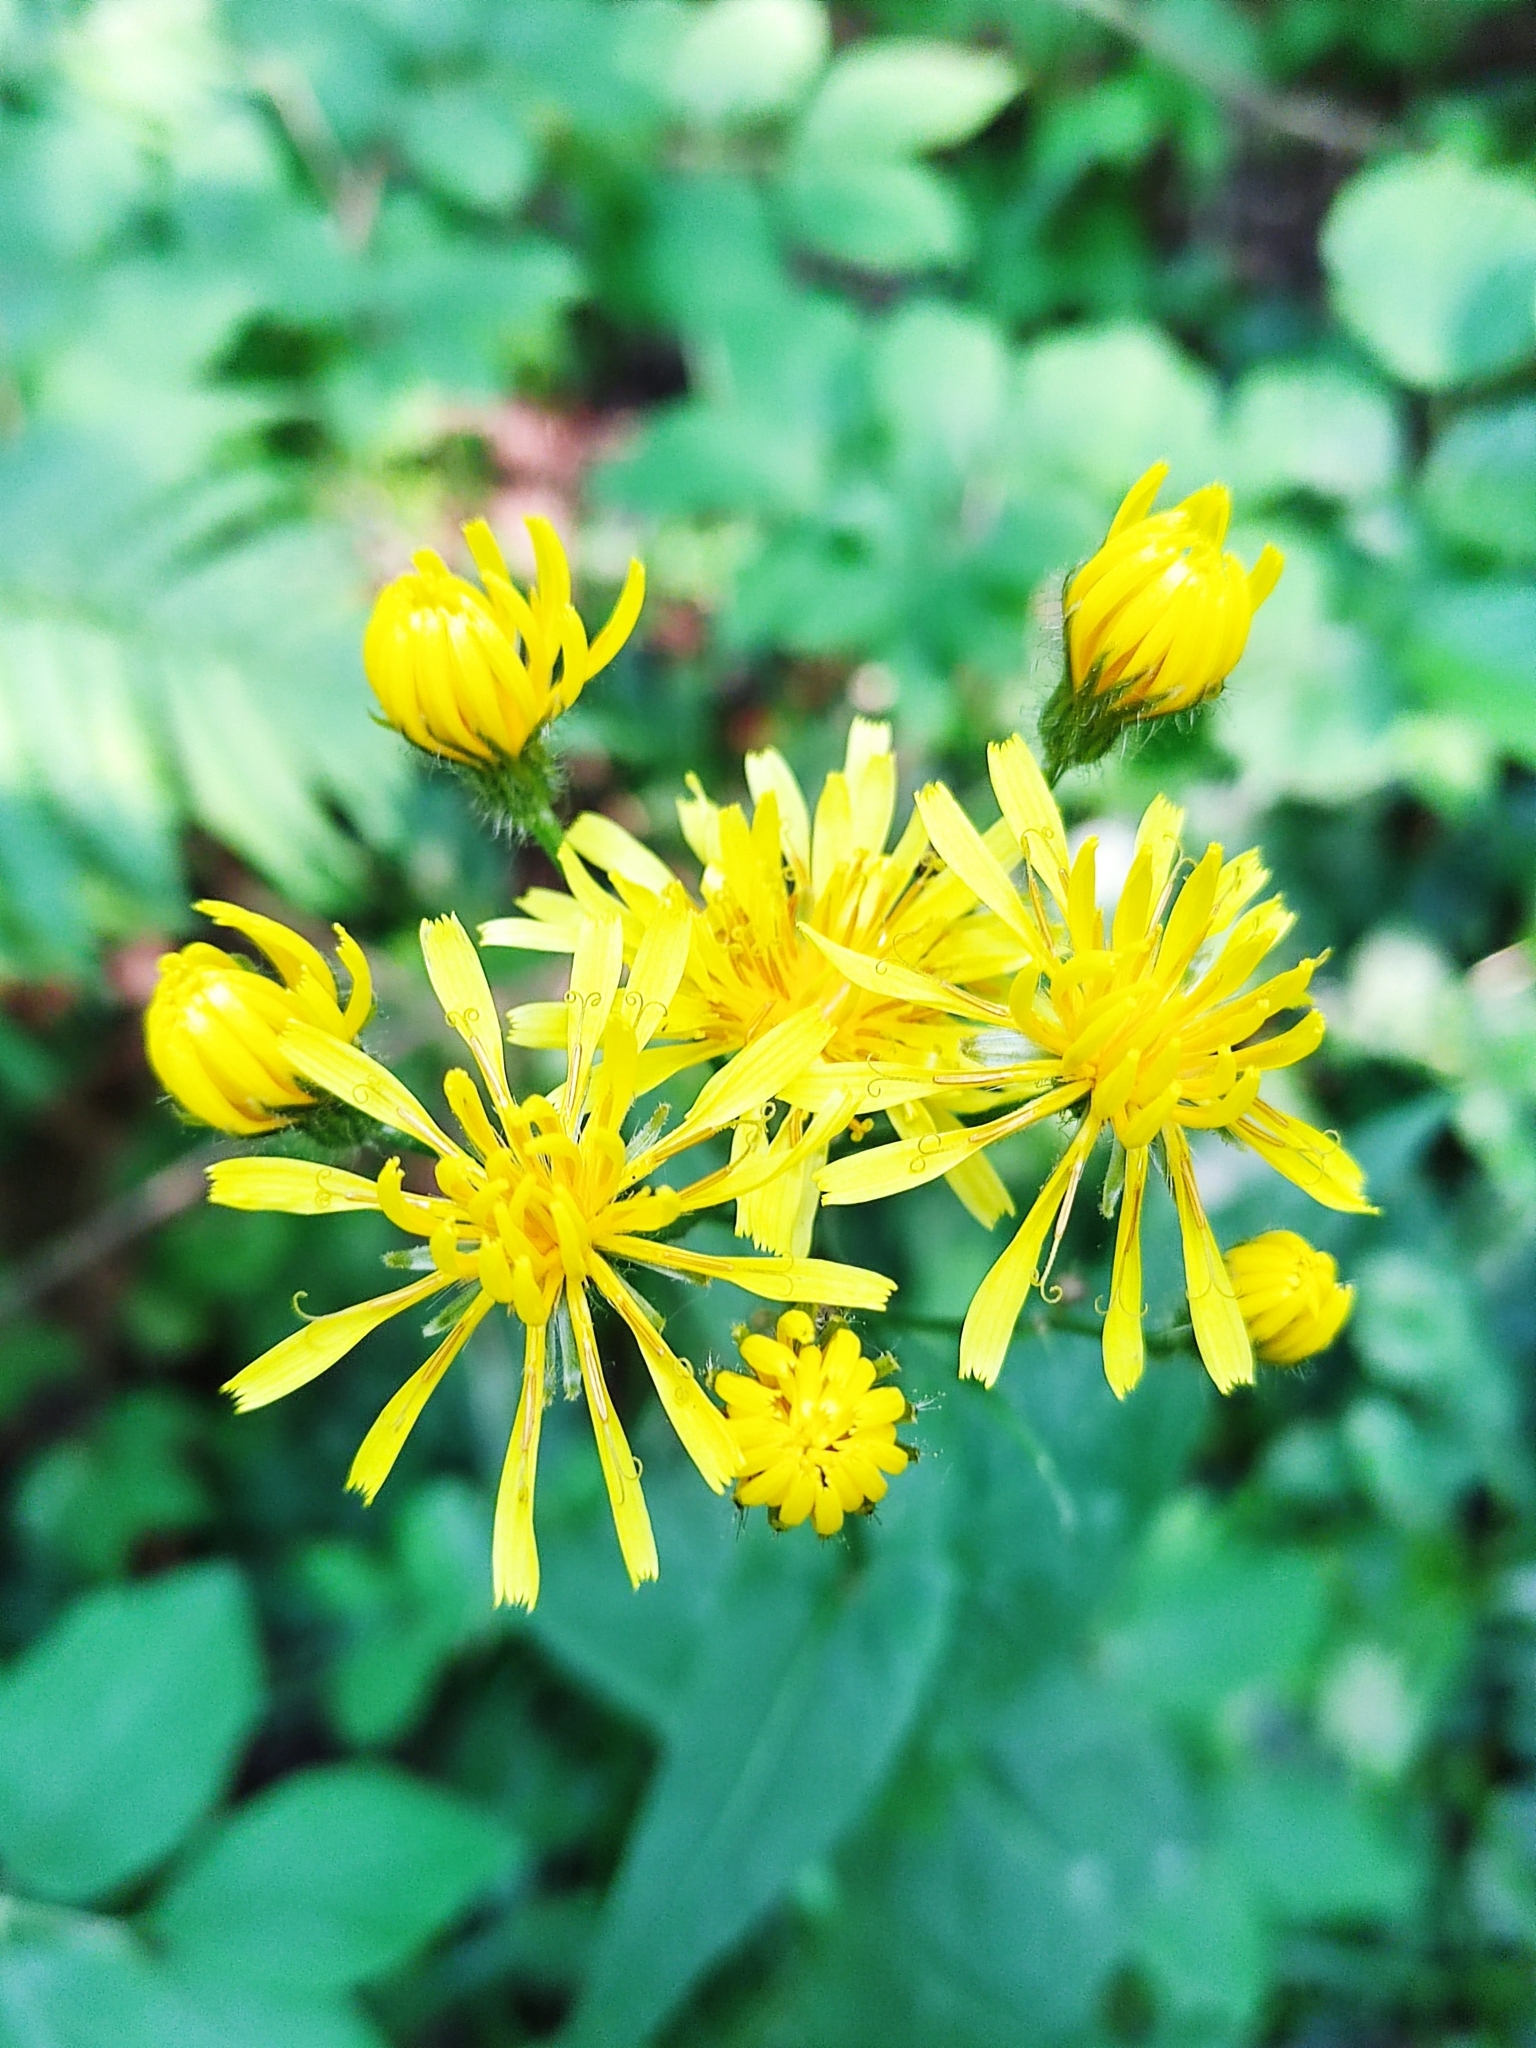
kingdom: Plantae
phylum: Tracheophyta
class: Magnoliopsida
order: Asterales
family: Asteraceae
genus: Crepis
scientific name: Crepis paludosa
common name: Marsh hawk's-beard
